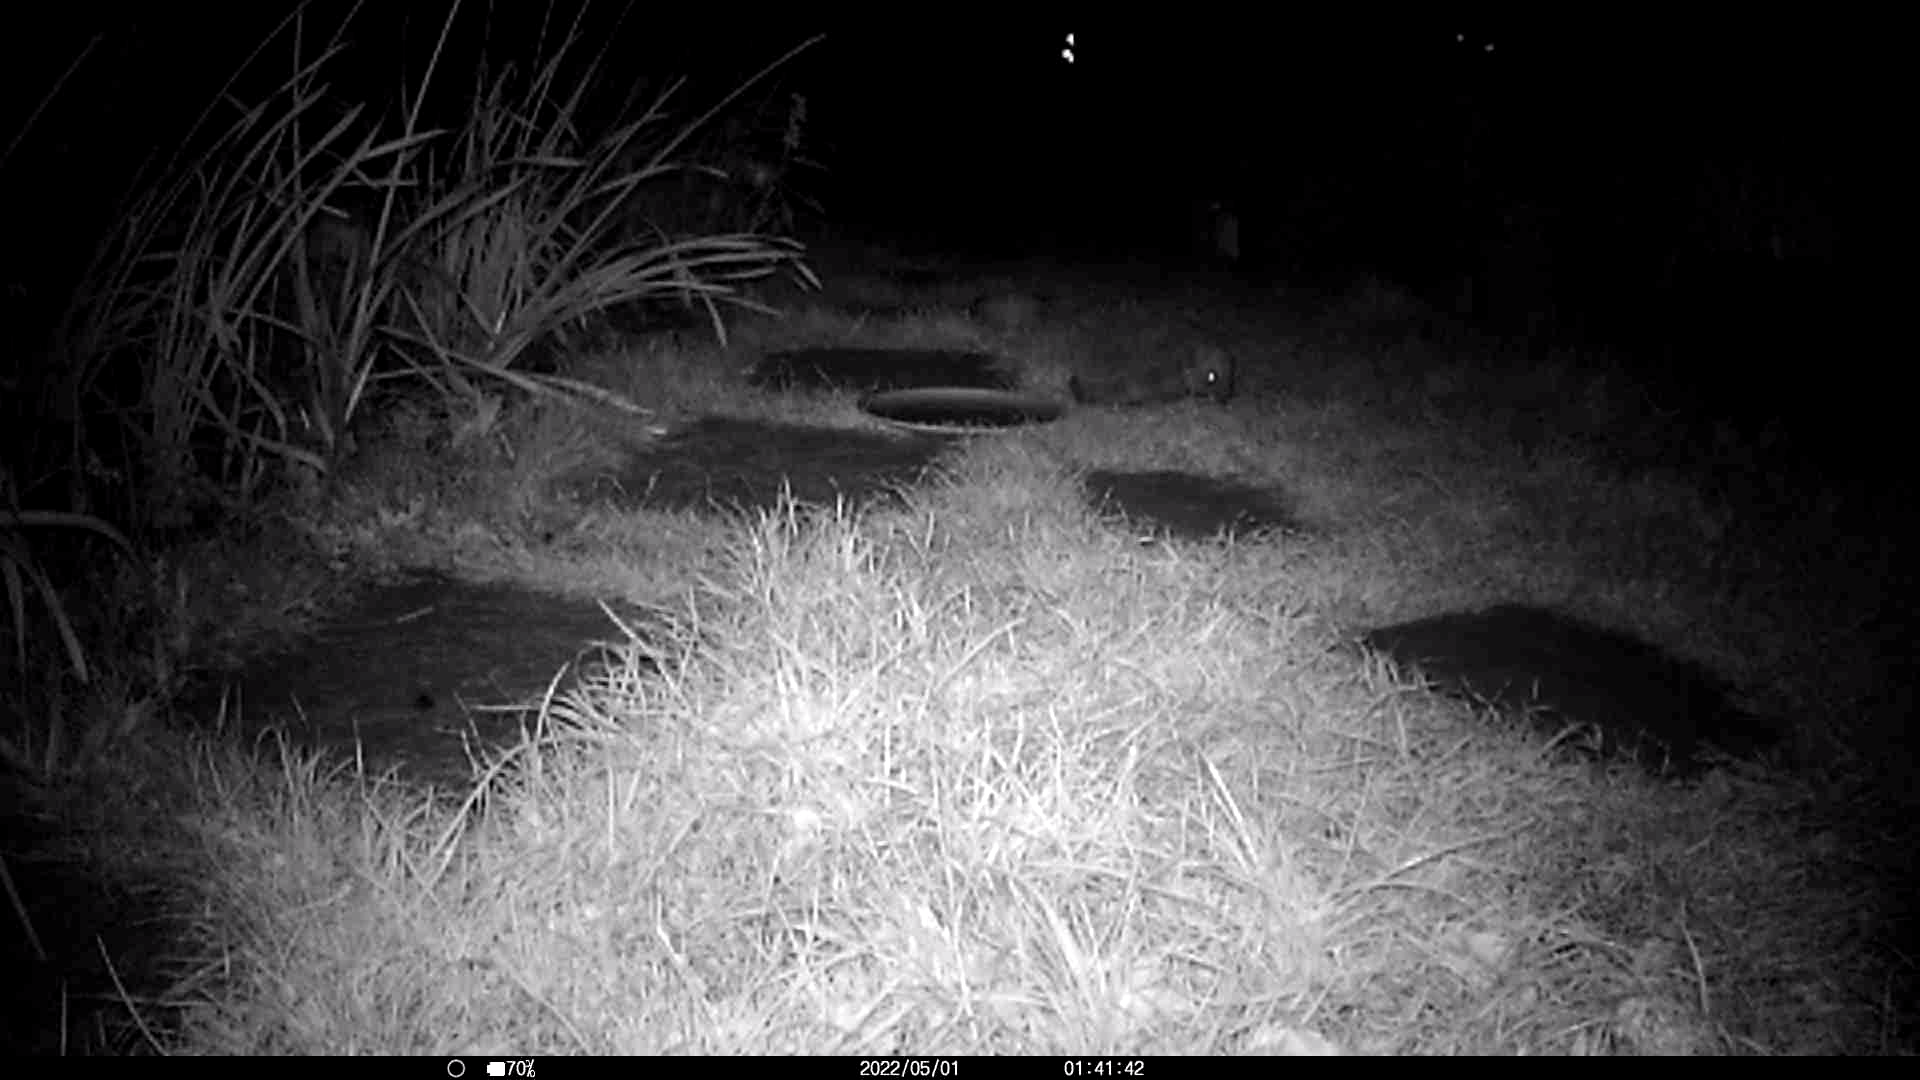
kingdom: Animalia
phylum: Chordata
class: Mammalia
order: Erinaceomorpha
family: Erinaceidae
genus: Erinaceus
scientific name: Erinaceus europaeus
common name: West european hedgehog
